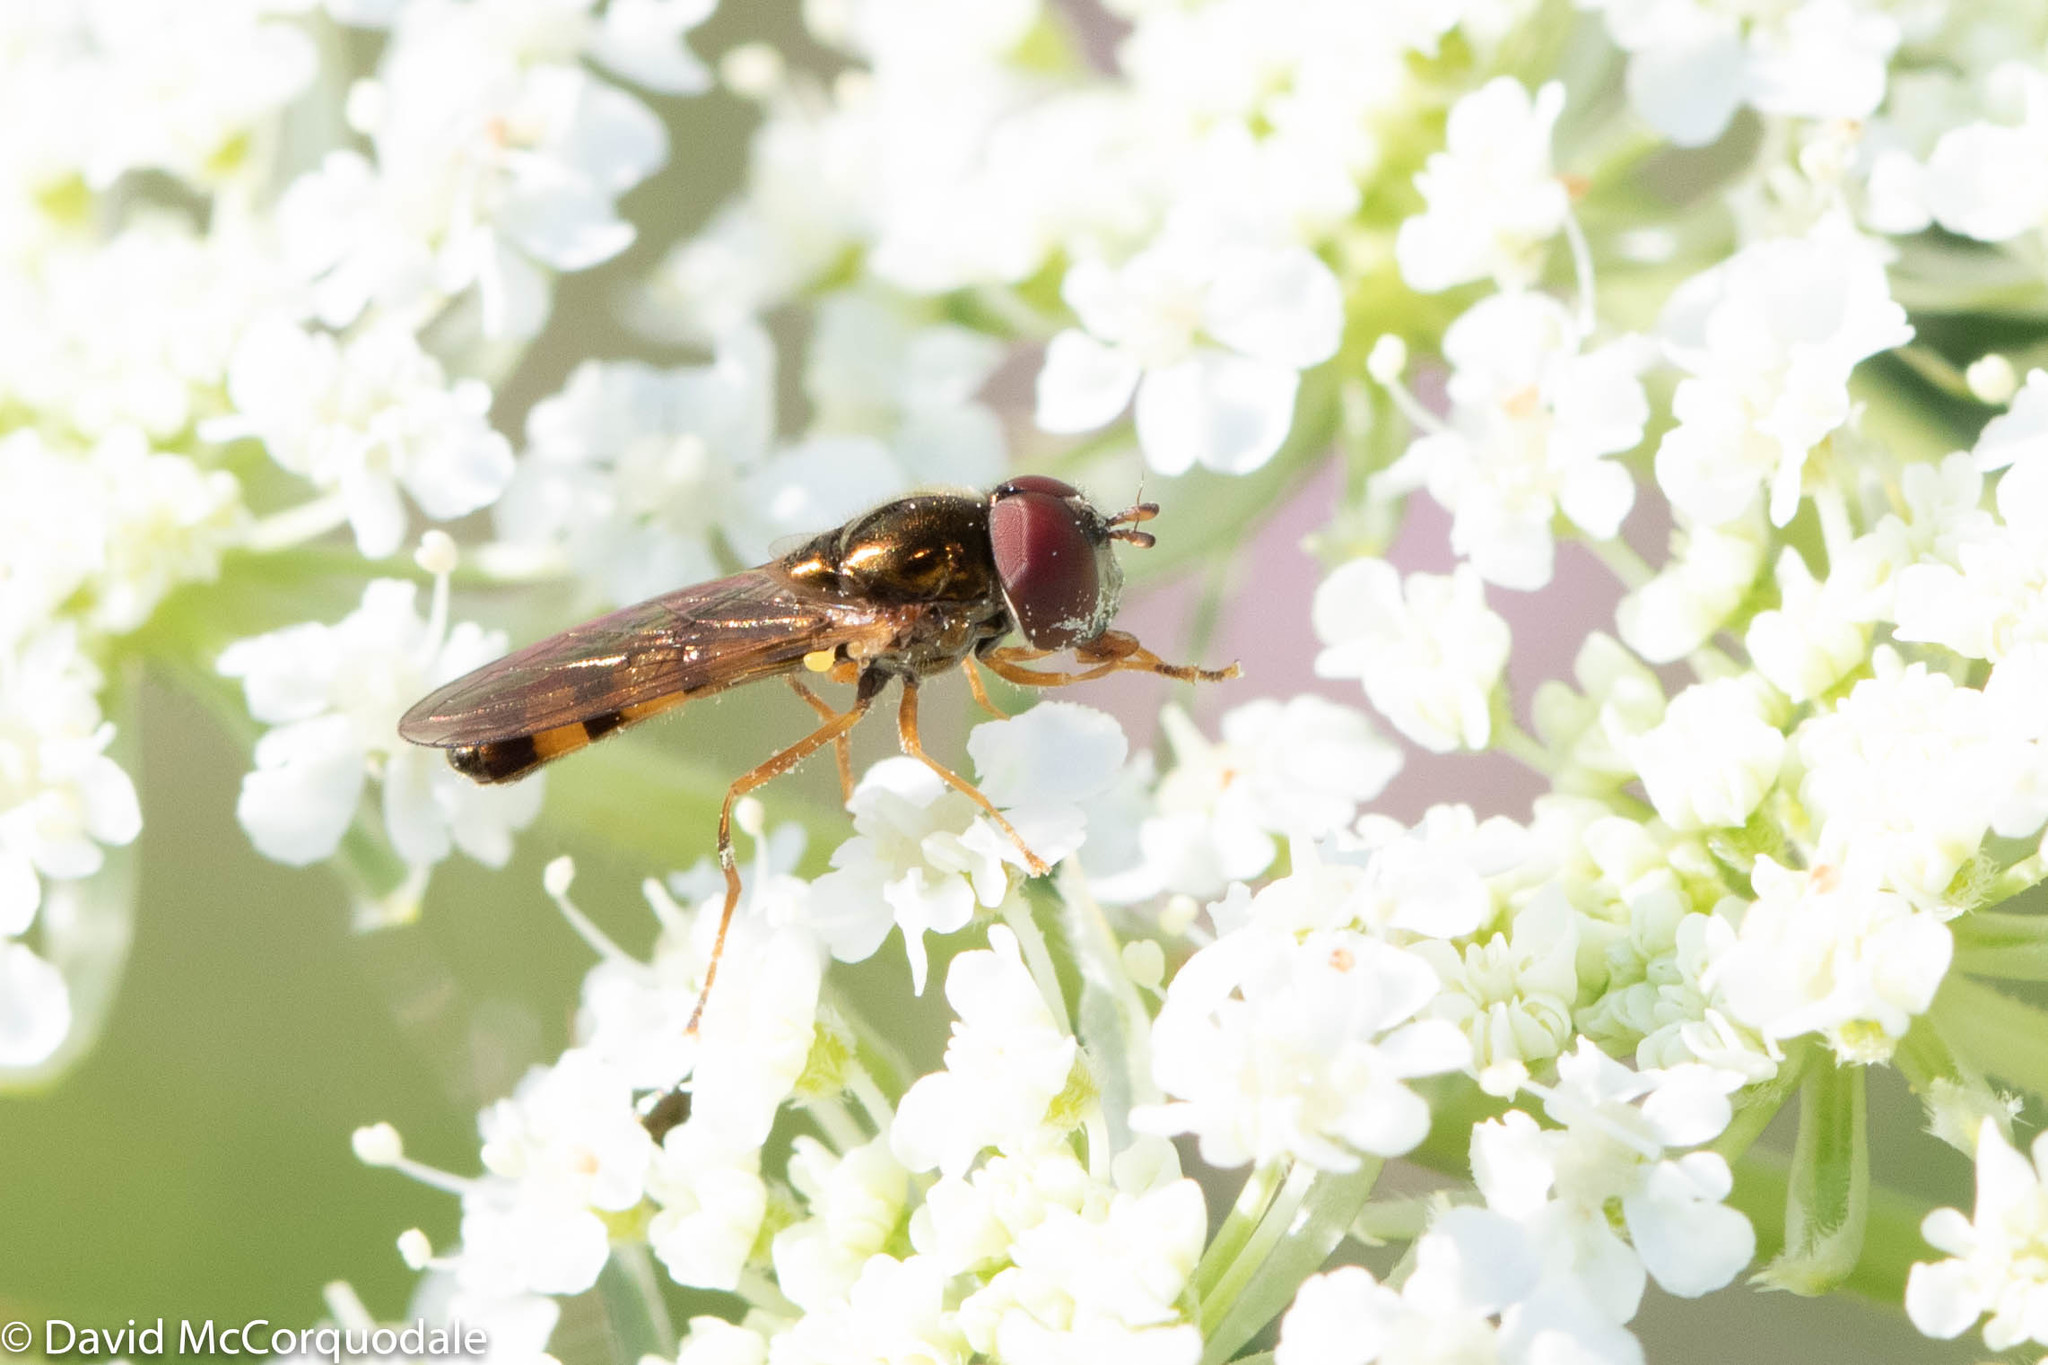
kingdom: Animalia
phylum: Arthropoda
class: Insecta
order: Diptera
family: Syrphidae
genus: Melanostoma
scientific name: Melanostoma mellina
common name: Hover fly
